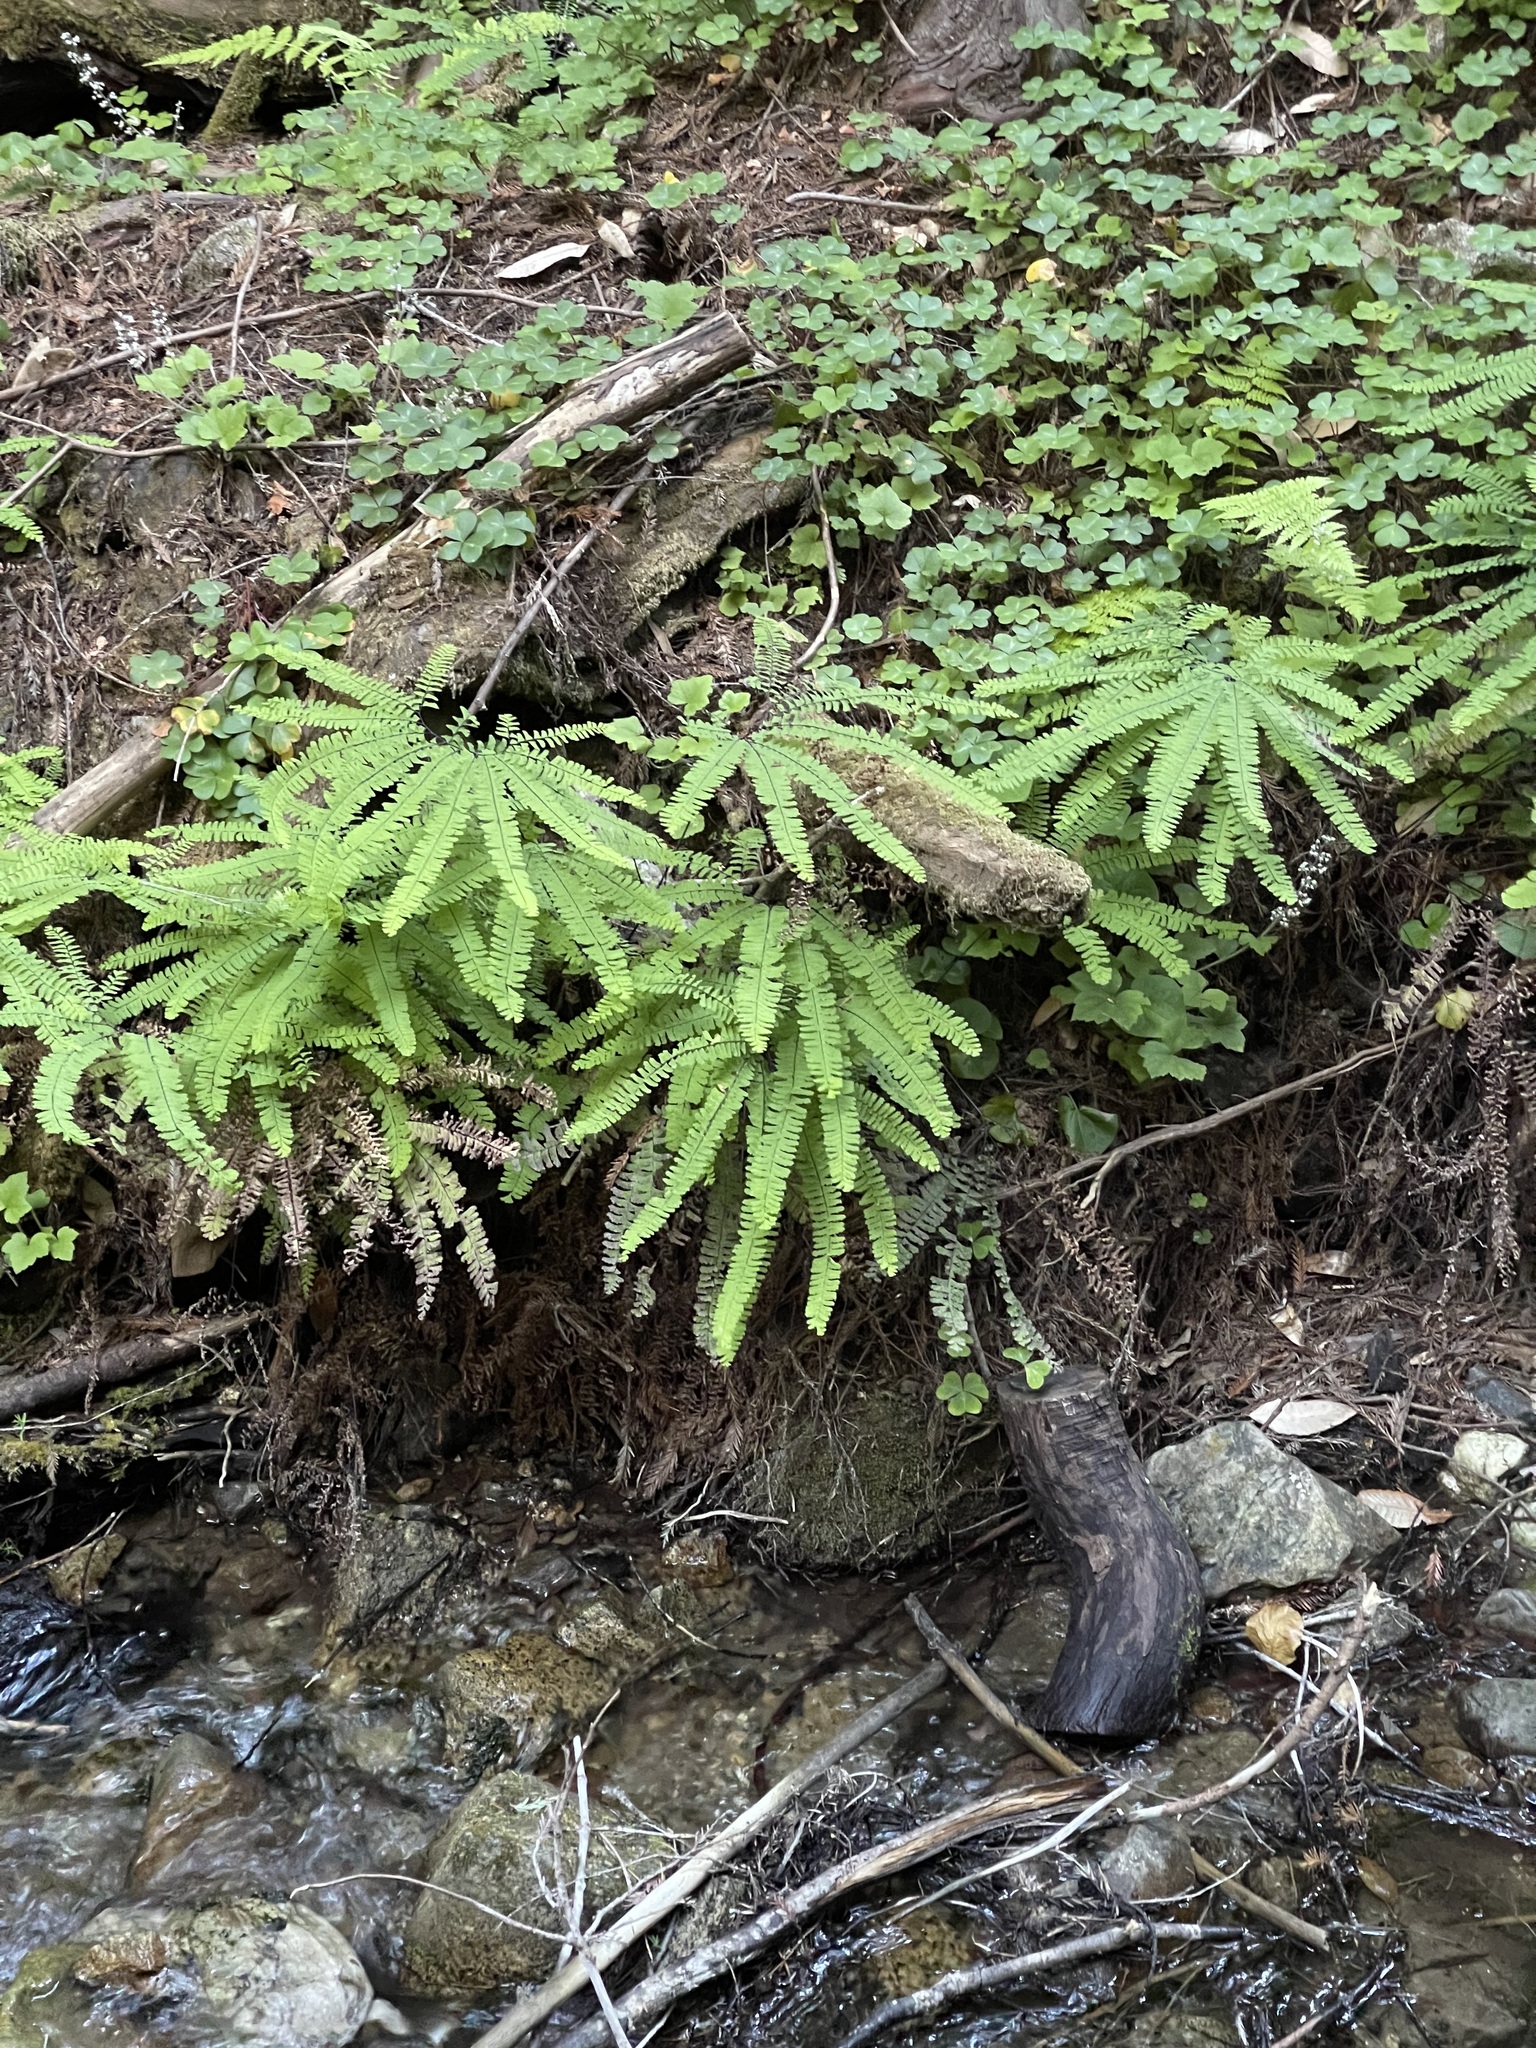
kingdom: Plantae
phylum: Tracheophyta
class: Polypodiopsida
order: Polypodiales
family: Pteridaceae
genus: Adiantum
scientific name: Adiantum aleuticum
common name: Aleutian maidenhair fern
